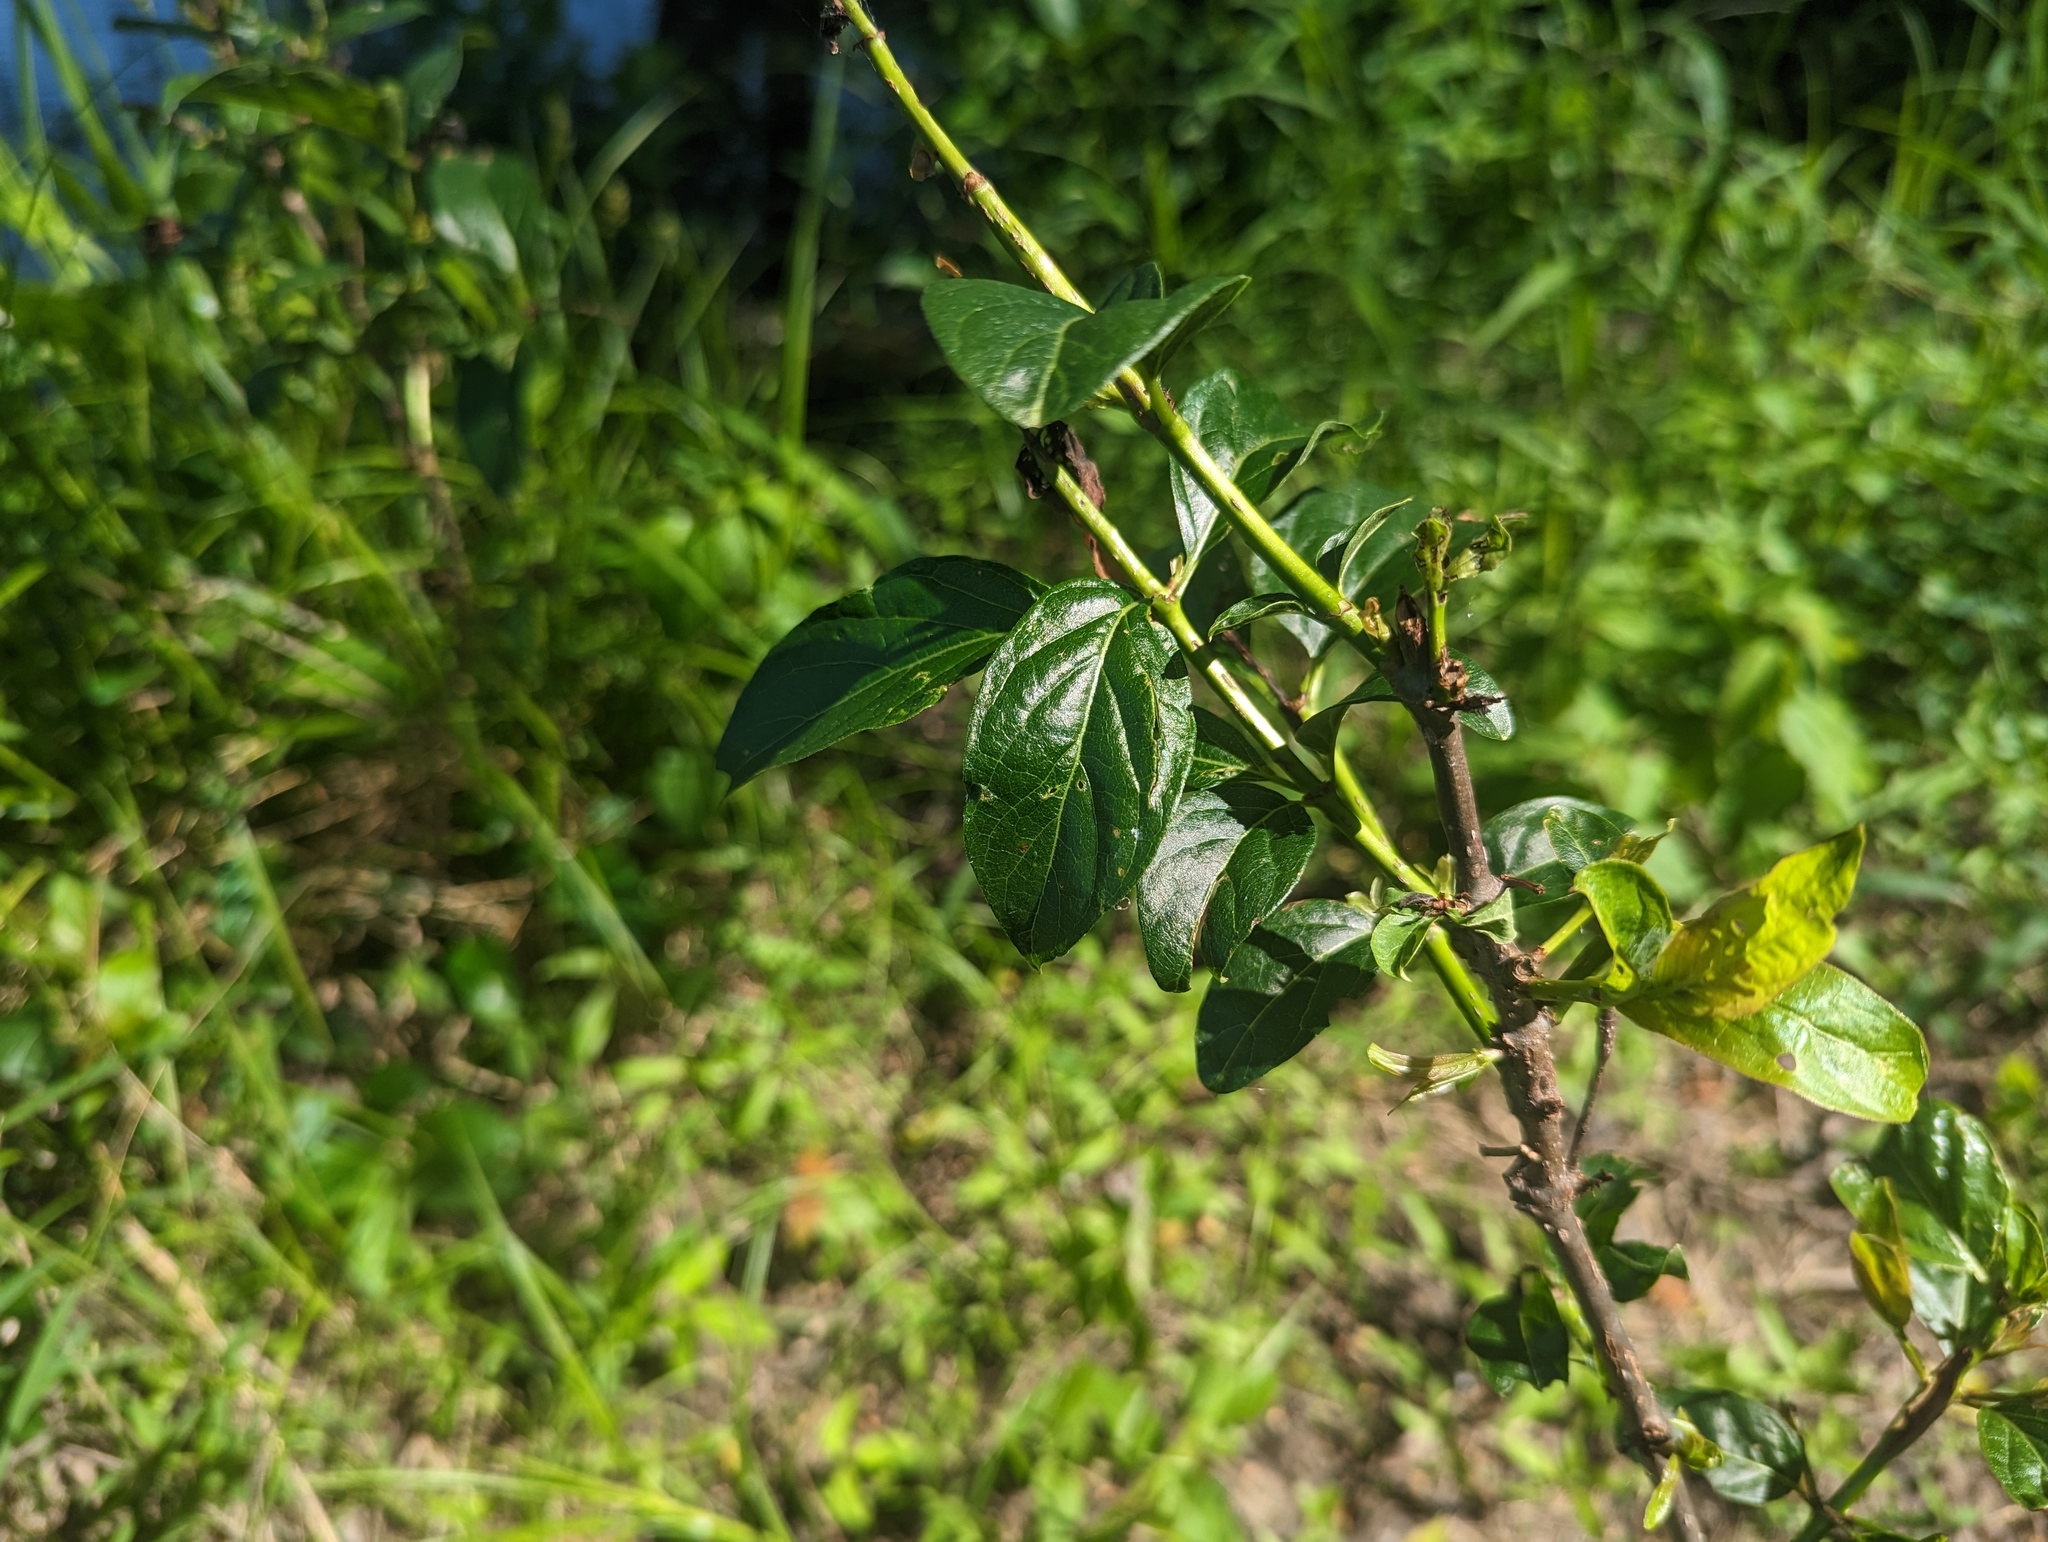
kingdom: Plantae
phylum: Tracheophyta
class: Magnoliopsida
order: Gentianales
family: Rubiaceae
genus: Cephalanthus
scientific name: Cephalanthus occidentalis
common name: Button-willow
